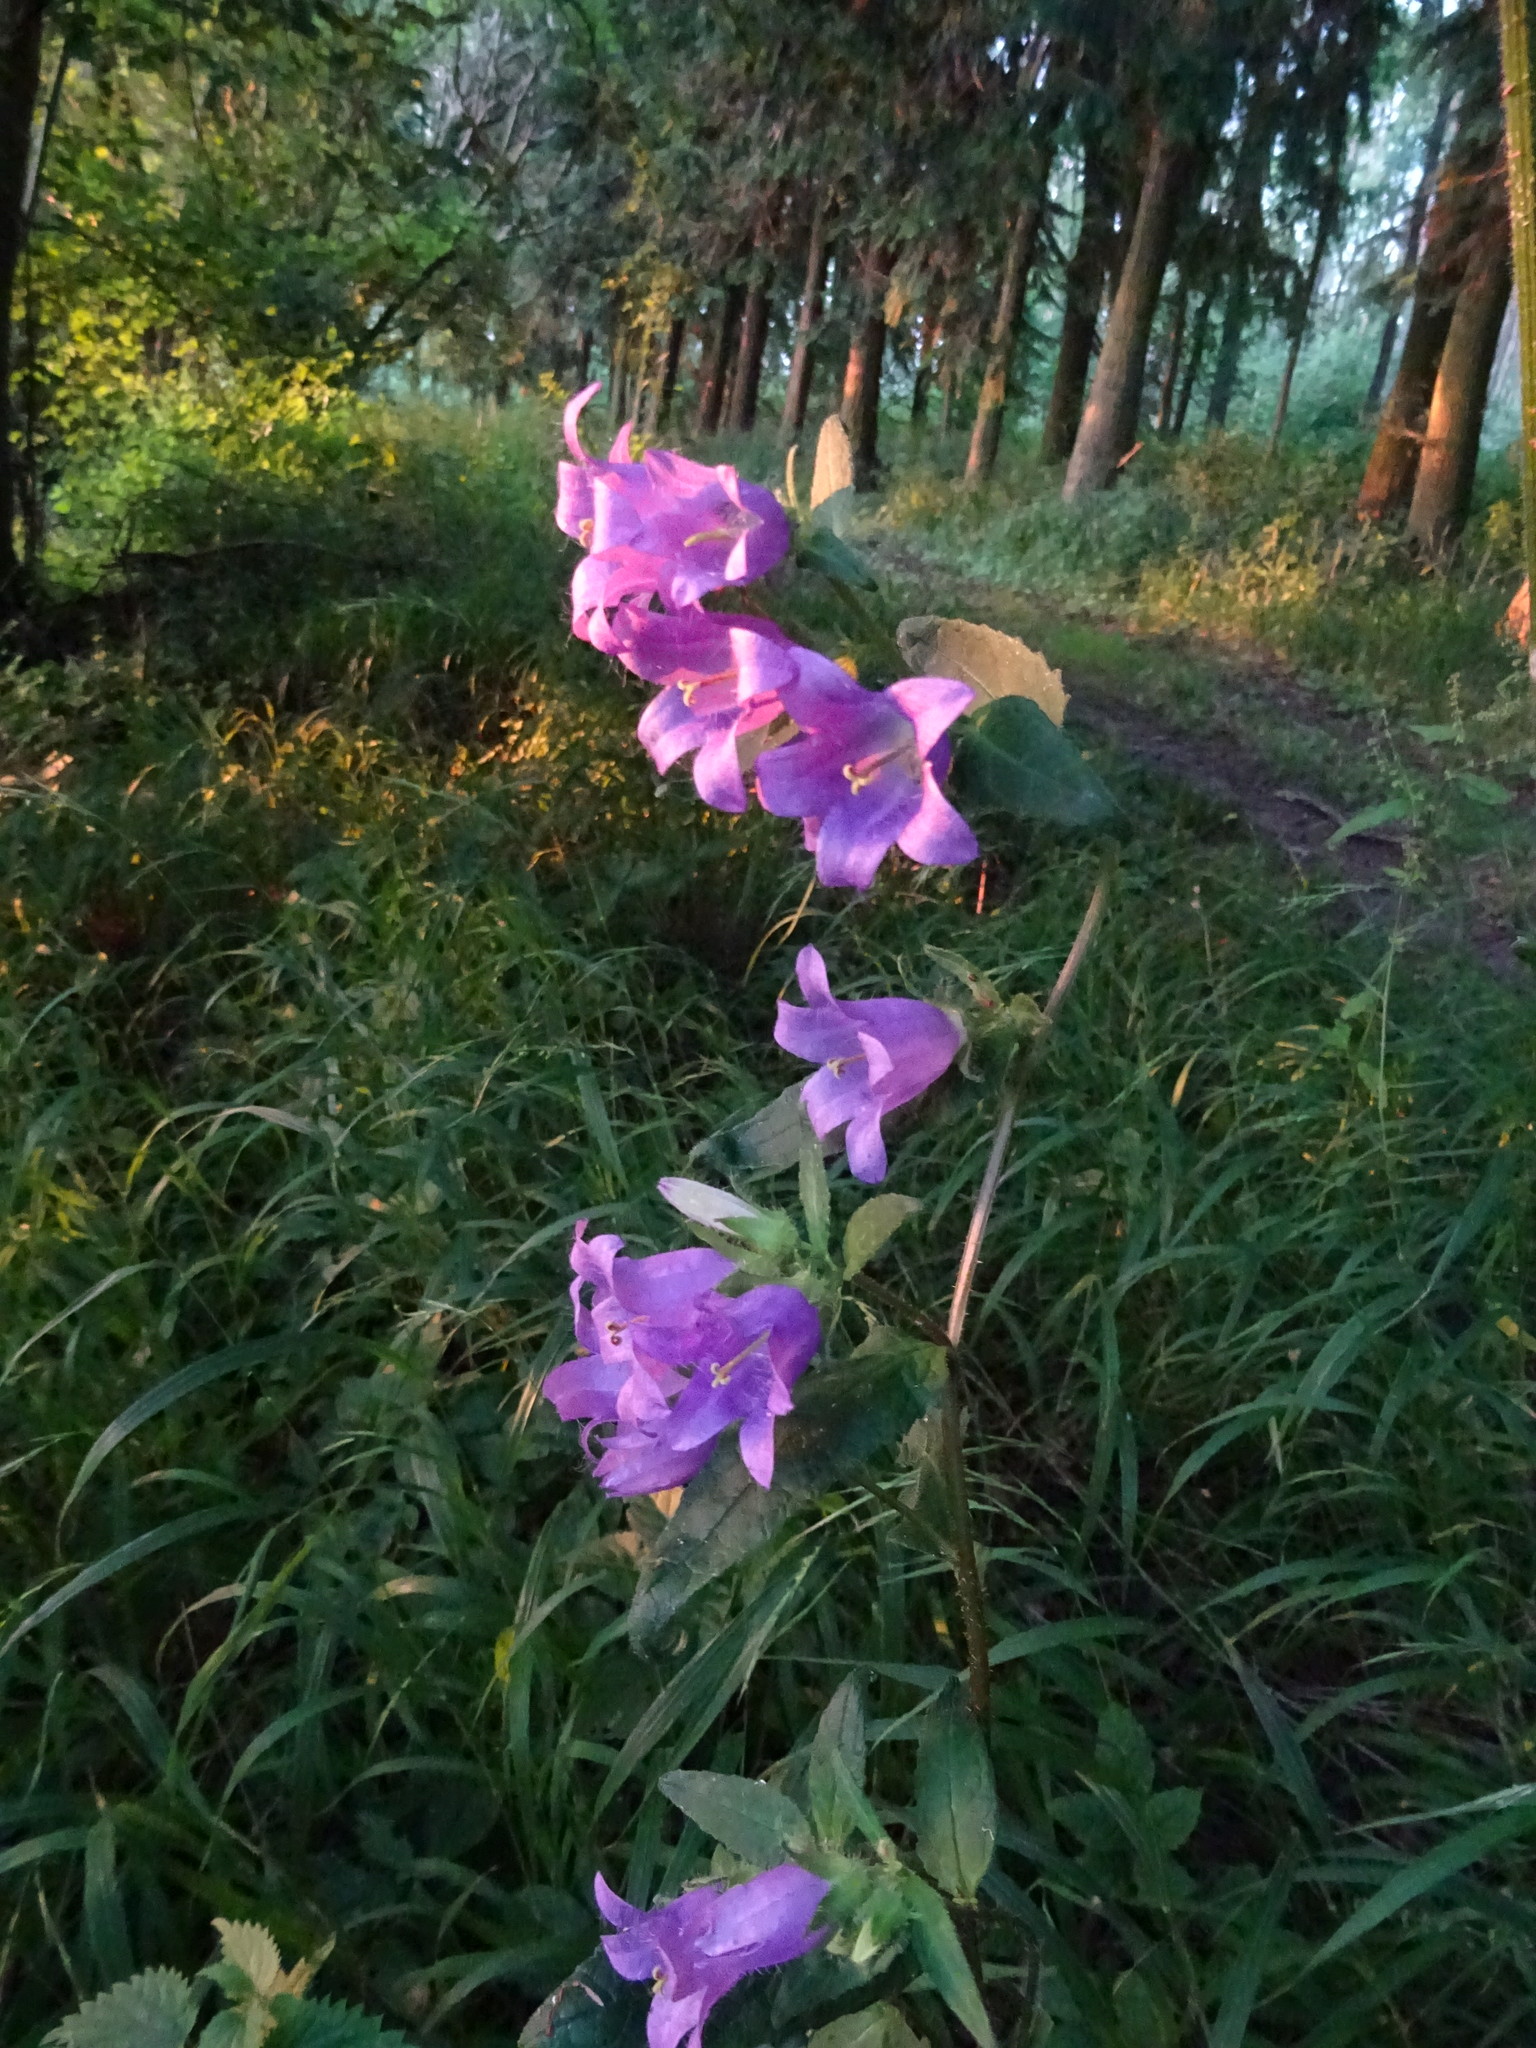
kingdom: Plantae
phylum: Tracheophyta
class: Magnoliopsida
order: Asterales
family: Campanulaceae
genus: Campanula
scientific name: Campanula trachelium
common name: Nettle-leaved bellflower
